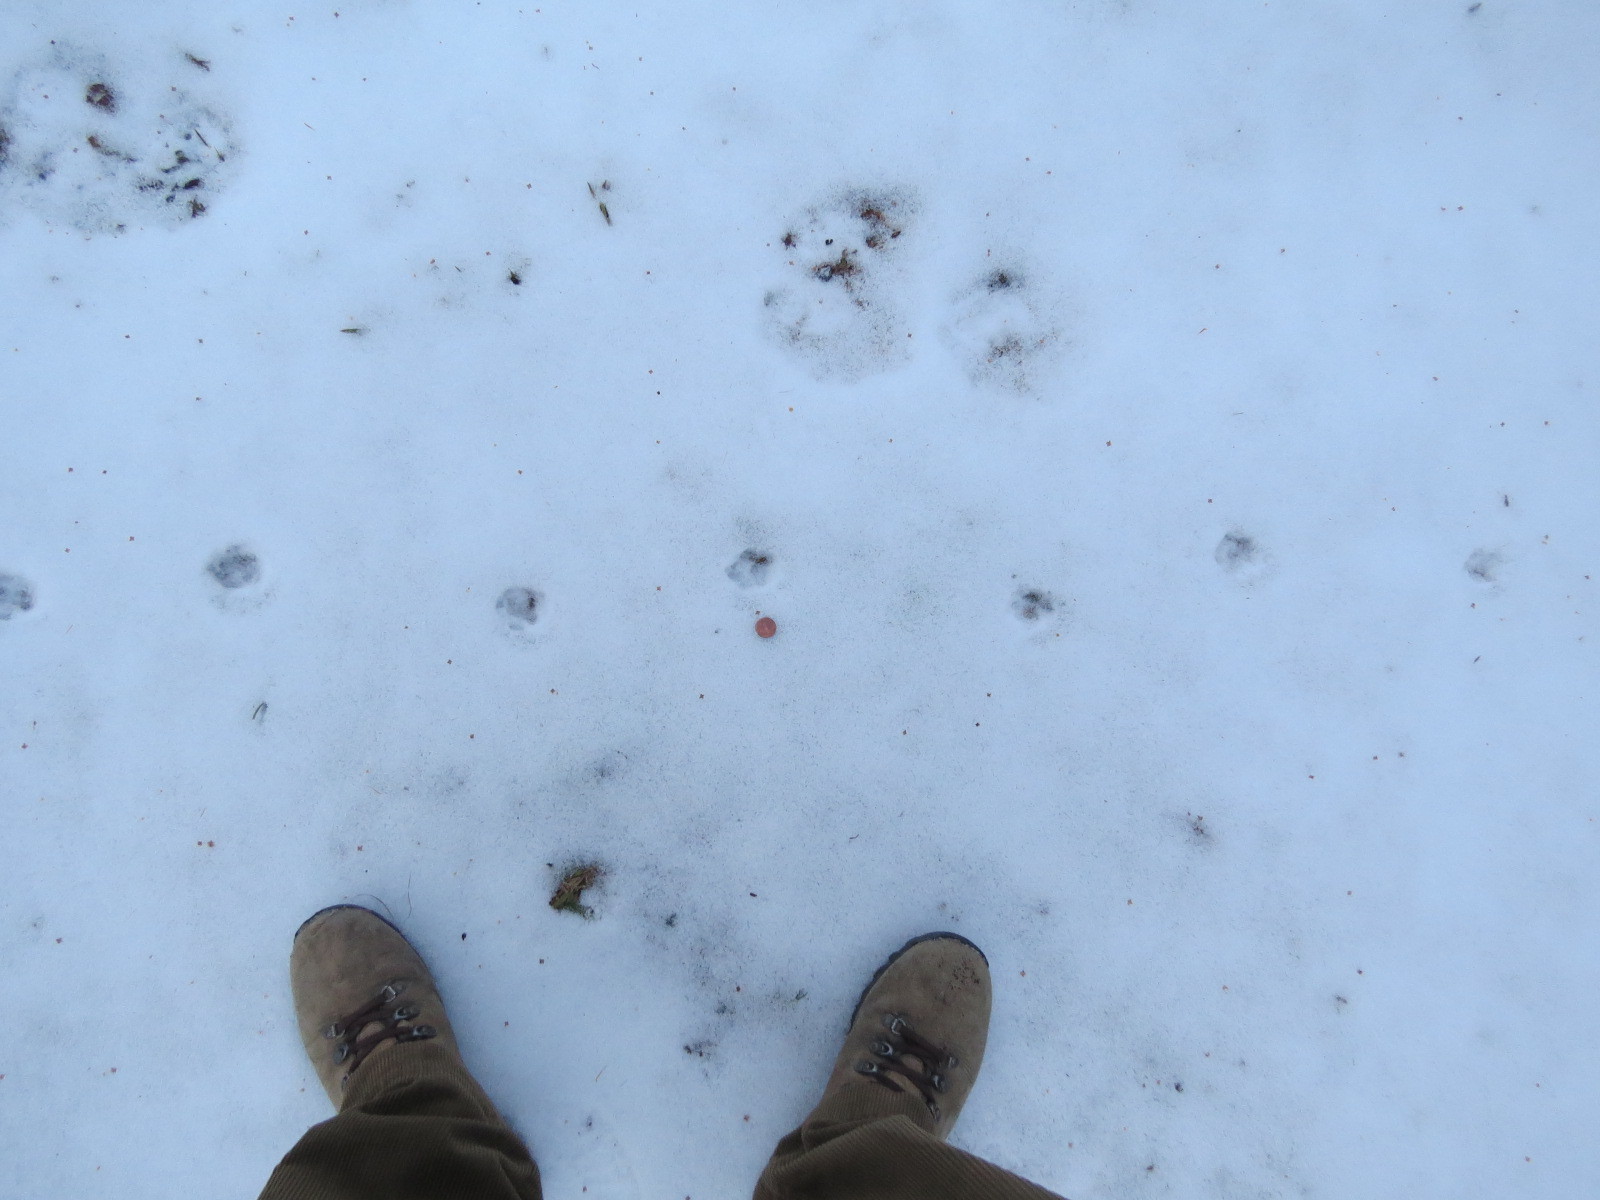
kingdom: Animalia
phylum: Chordata
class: Mammalia
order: Carnivora
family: Felidae
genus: Felis
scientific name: Felis catus
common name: Domestic cat
